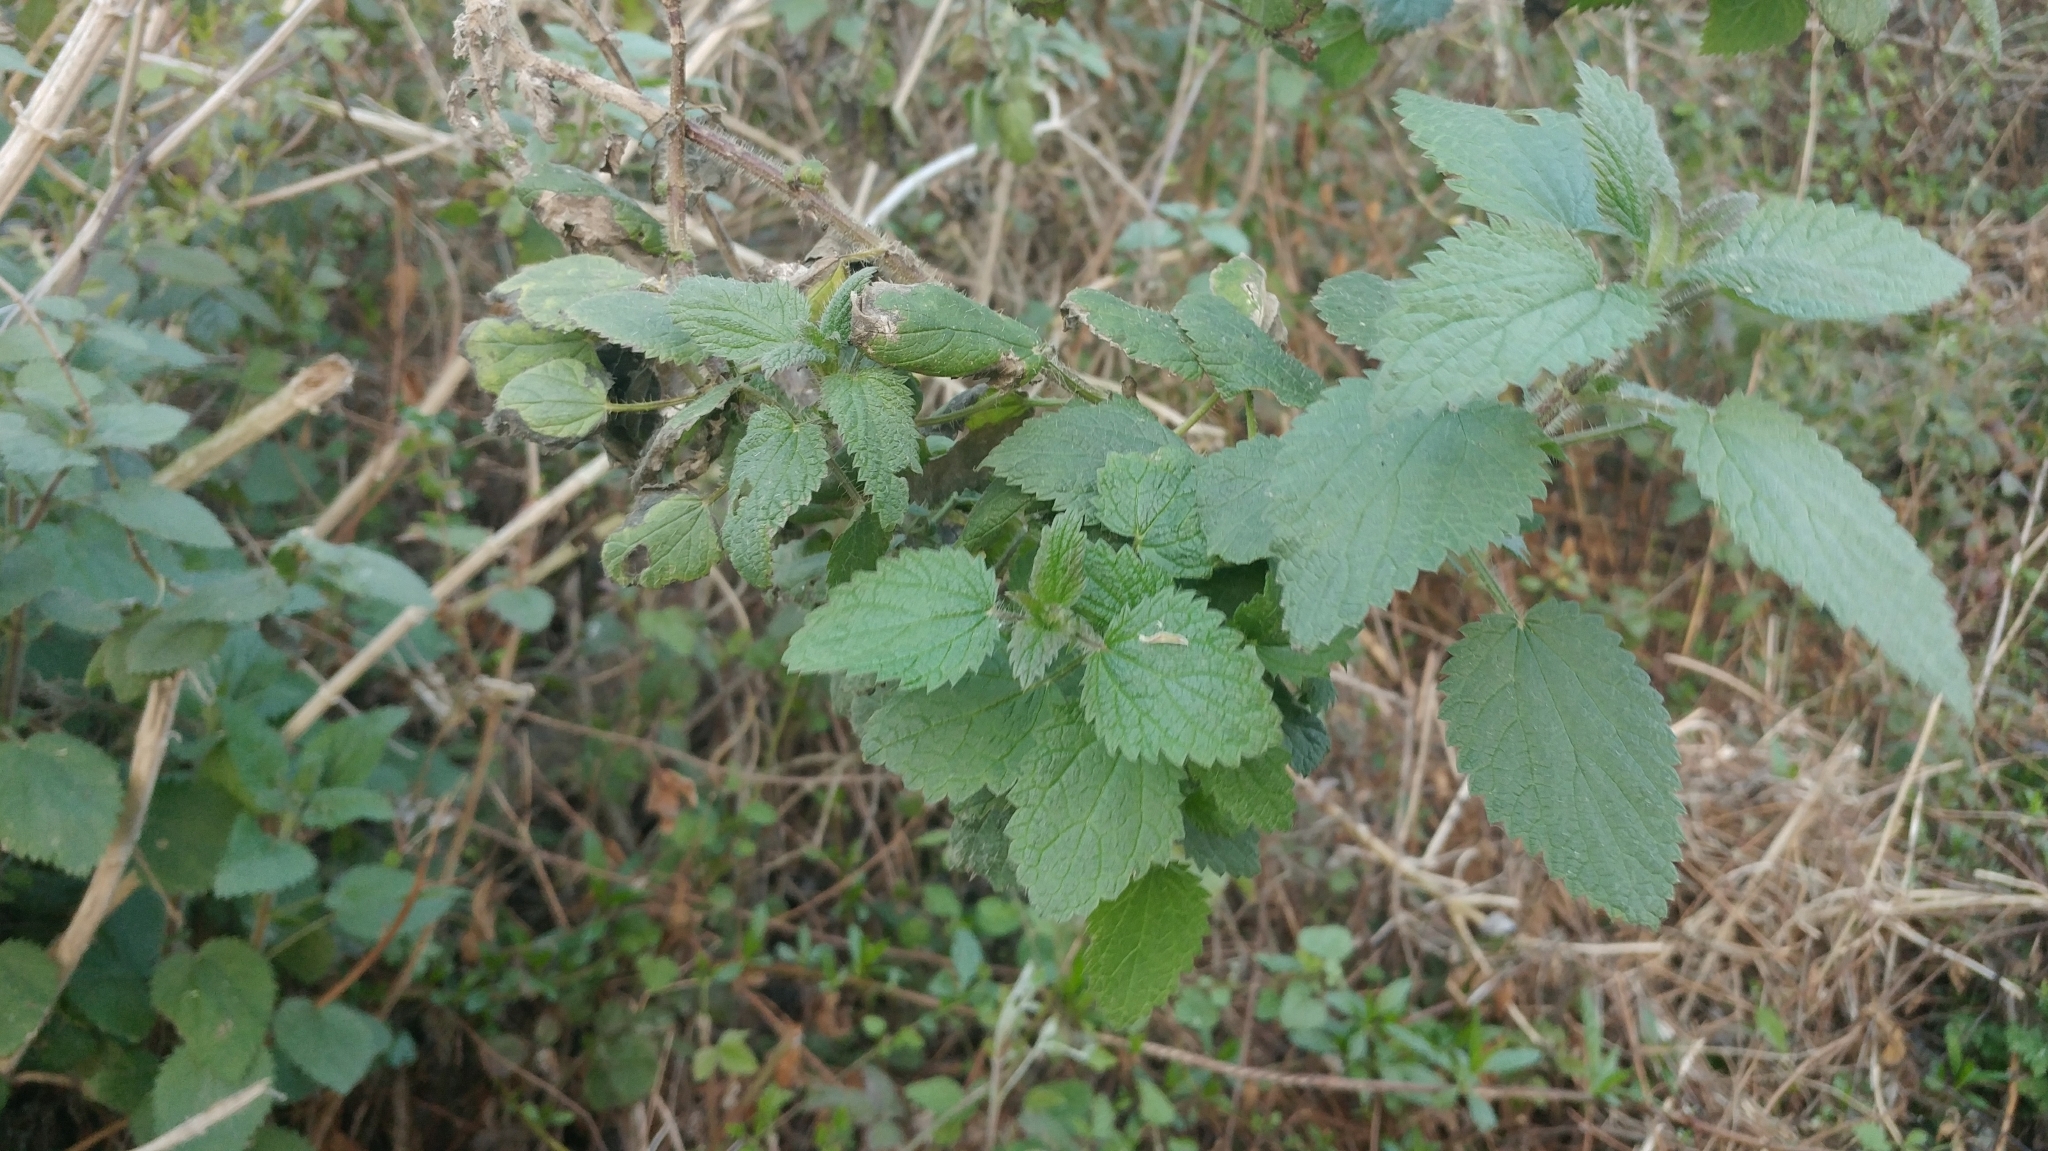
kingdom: Plantae
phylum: Tracheophyta
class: Magnoliopsida
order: Rosales
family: Urticaceae
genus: Urtica
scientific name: Urtica dioica
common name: Common nettle
